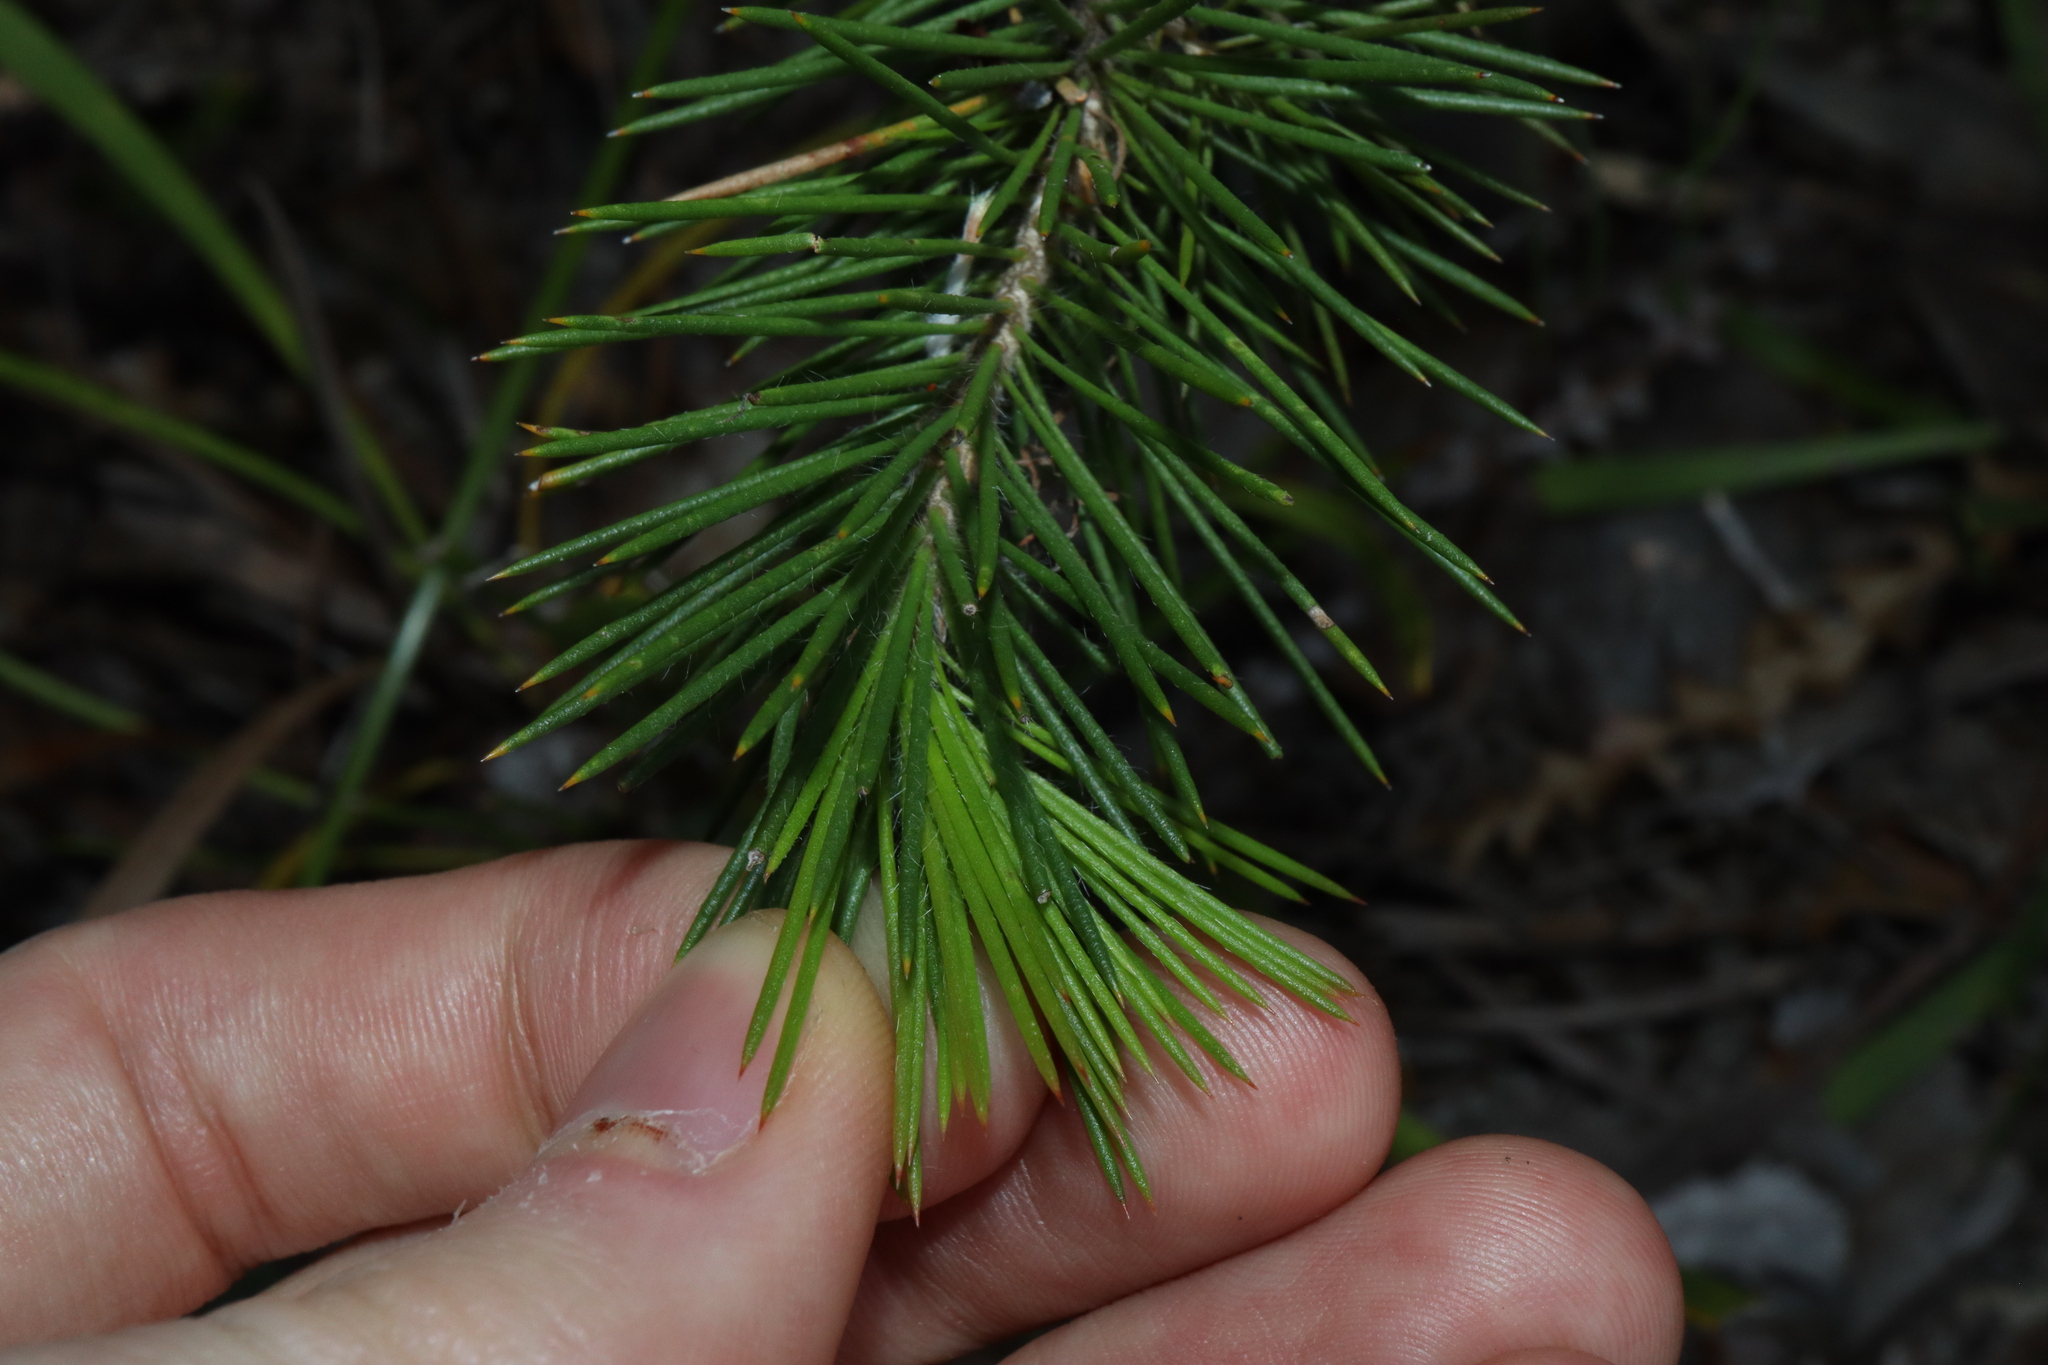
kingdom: Plantae
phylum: Tracheophyta
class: Magnoliopsida
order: Myrtales
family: Myrtaceae
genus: Melaleuca
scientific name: Melaleuca peucophylla
